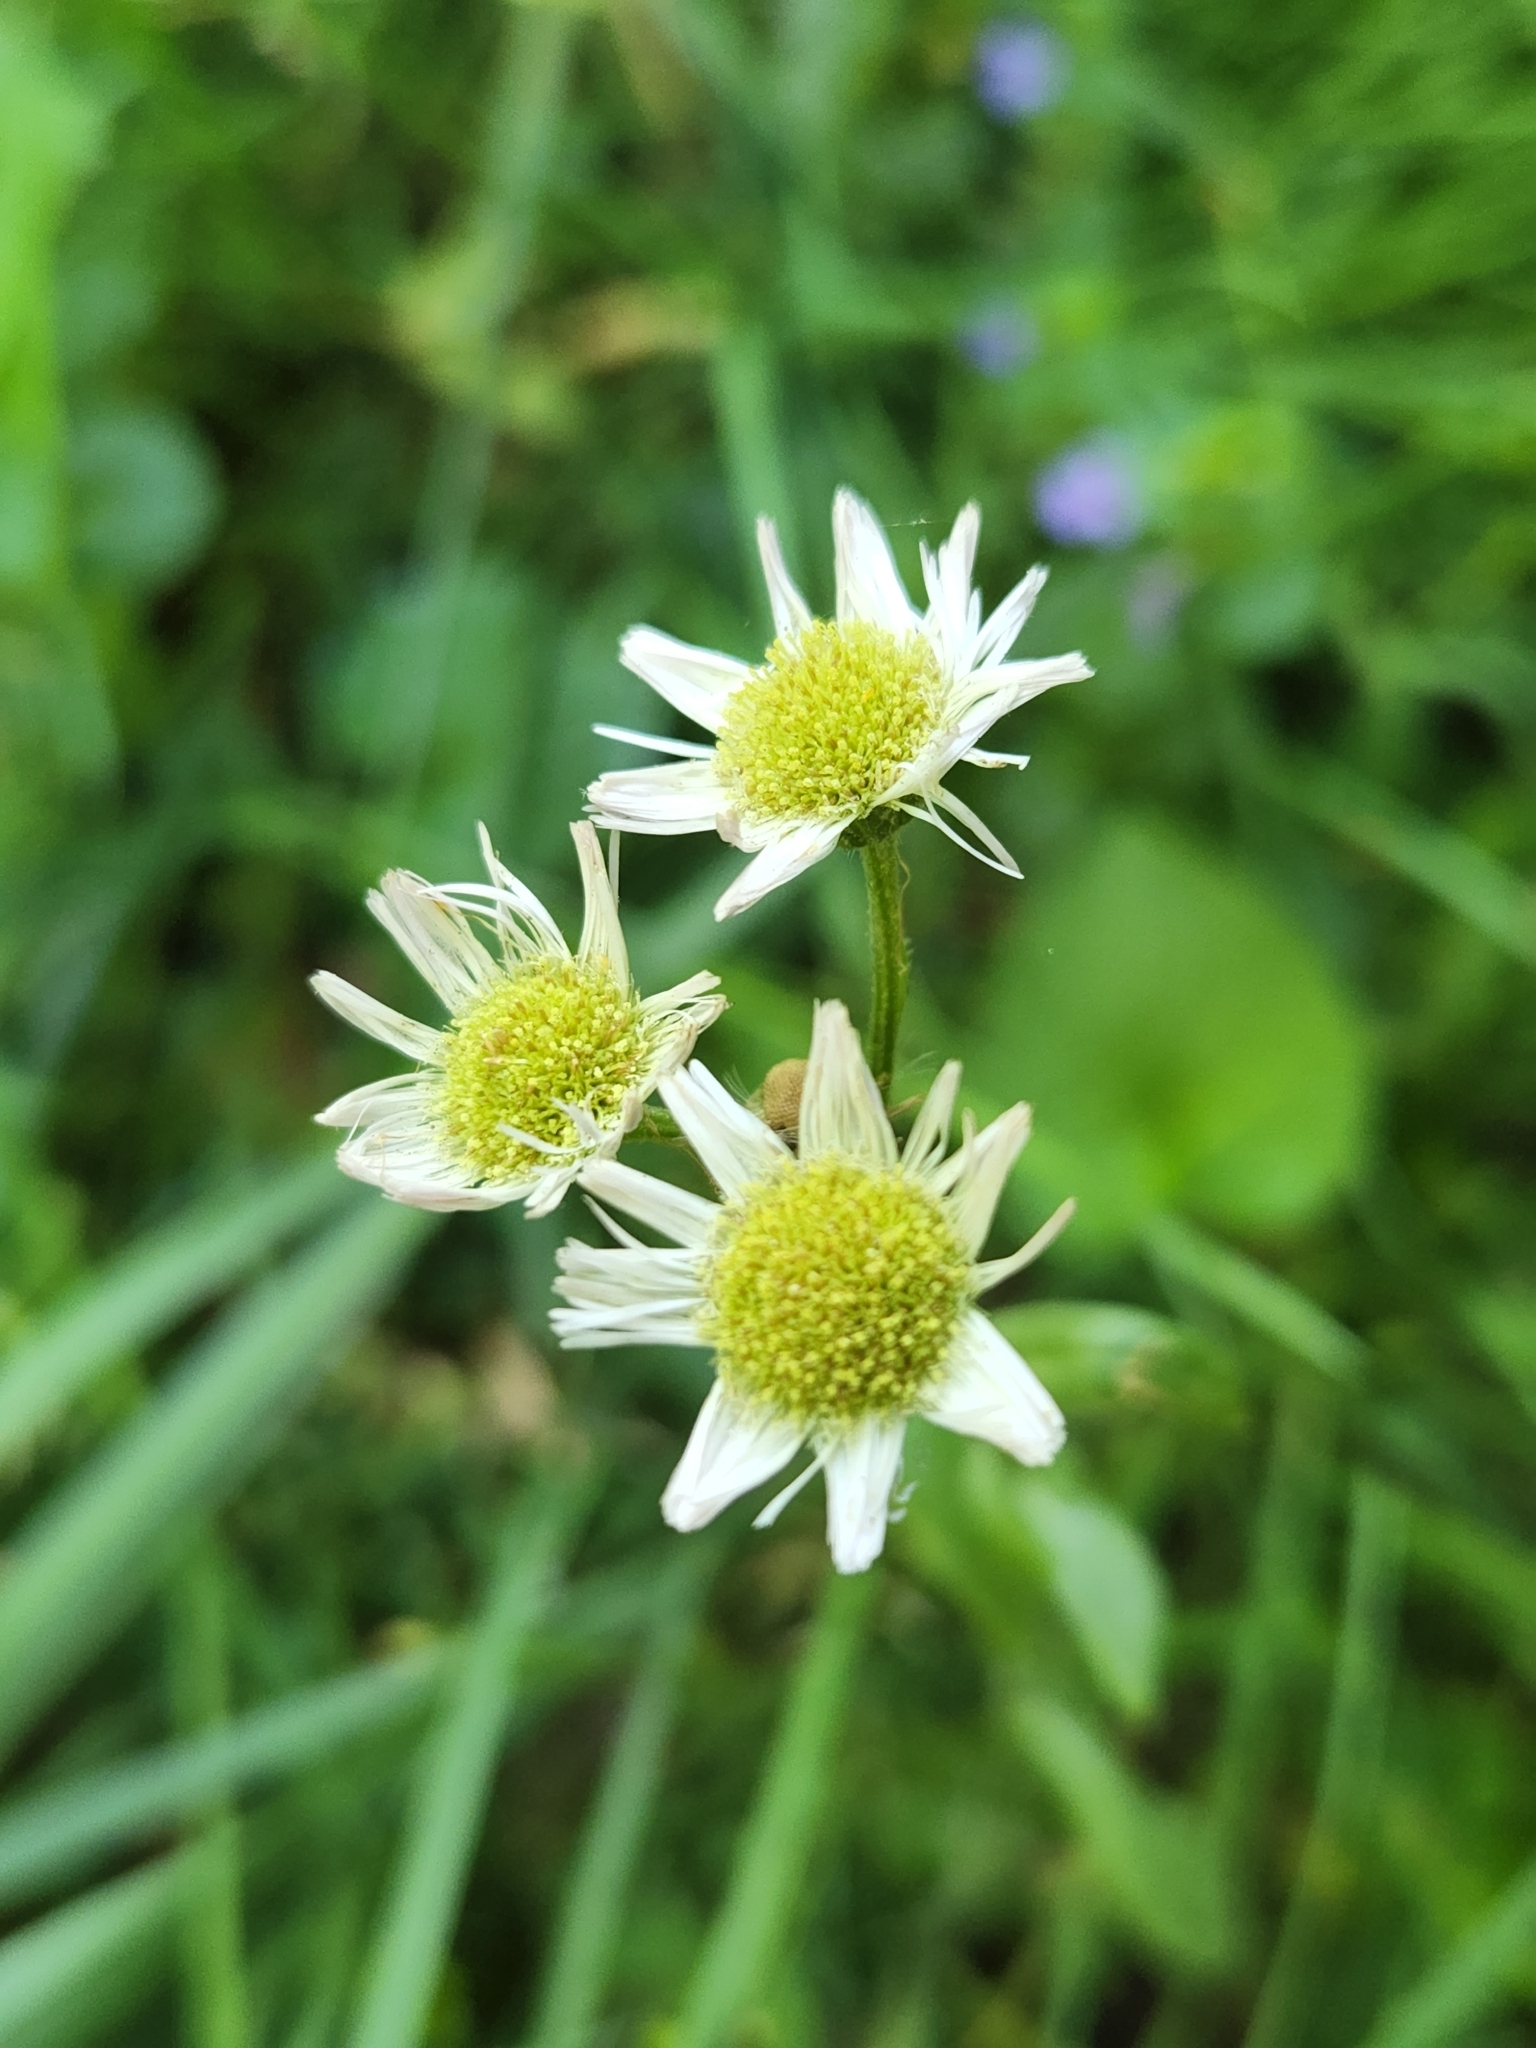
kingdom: Plantae
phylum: Tracheophyta
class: Magnoliopsida
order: Asterales
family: Asteraceae
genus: Erigeron
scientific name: Erigeron philadelphicus
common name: Robin's-plantain
